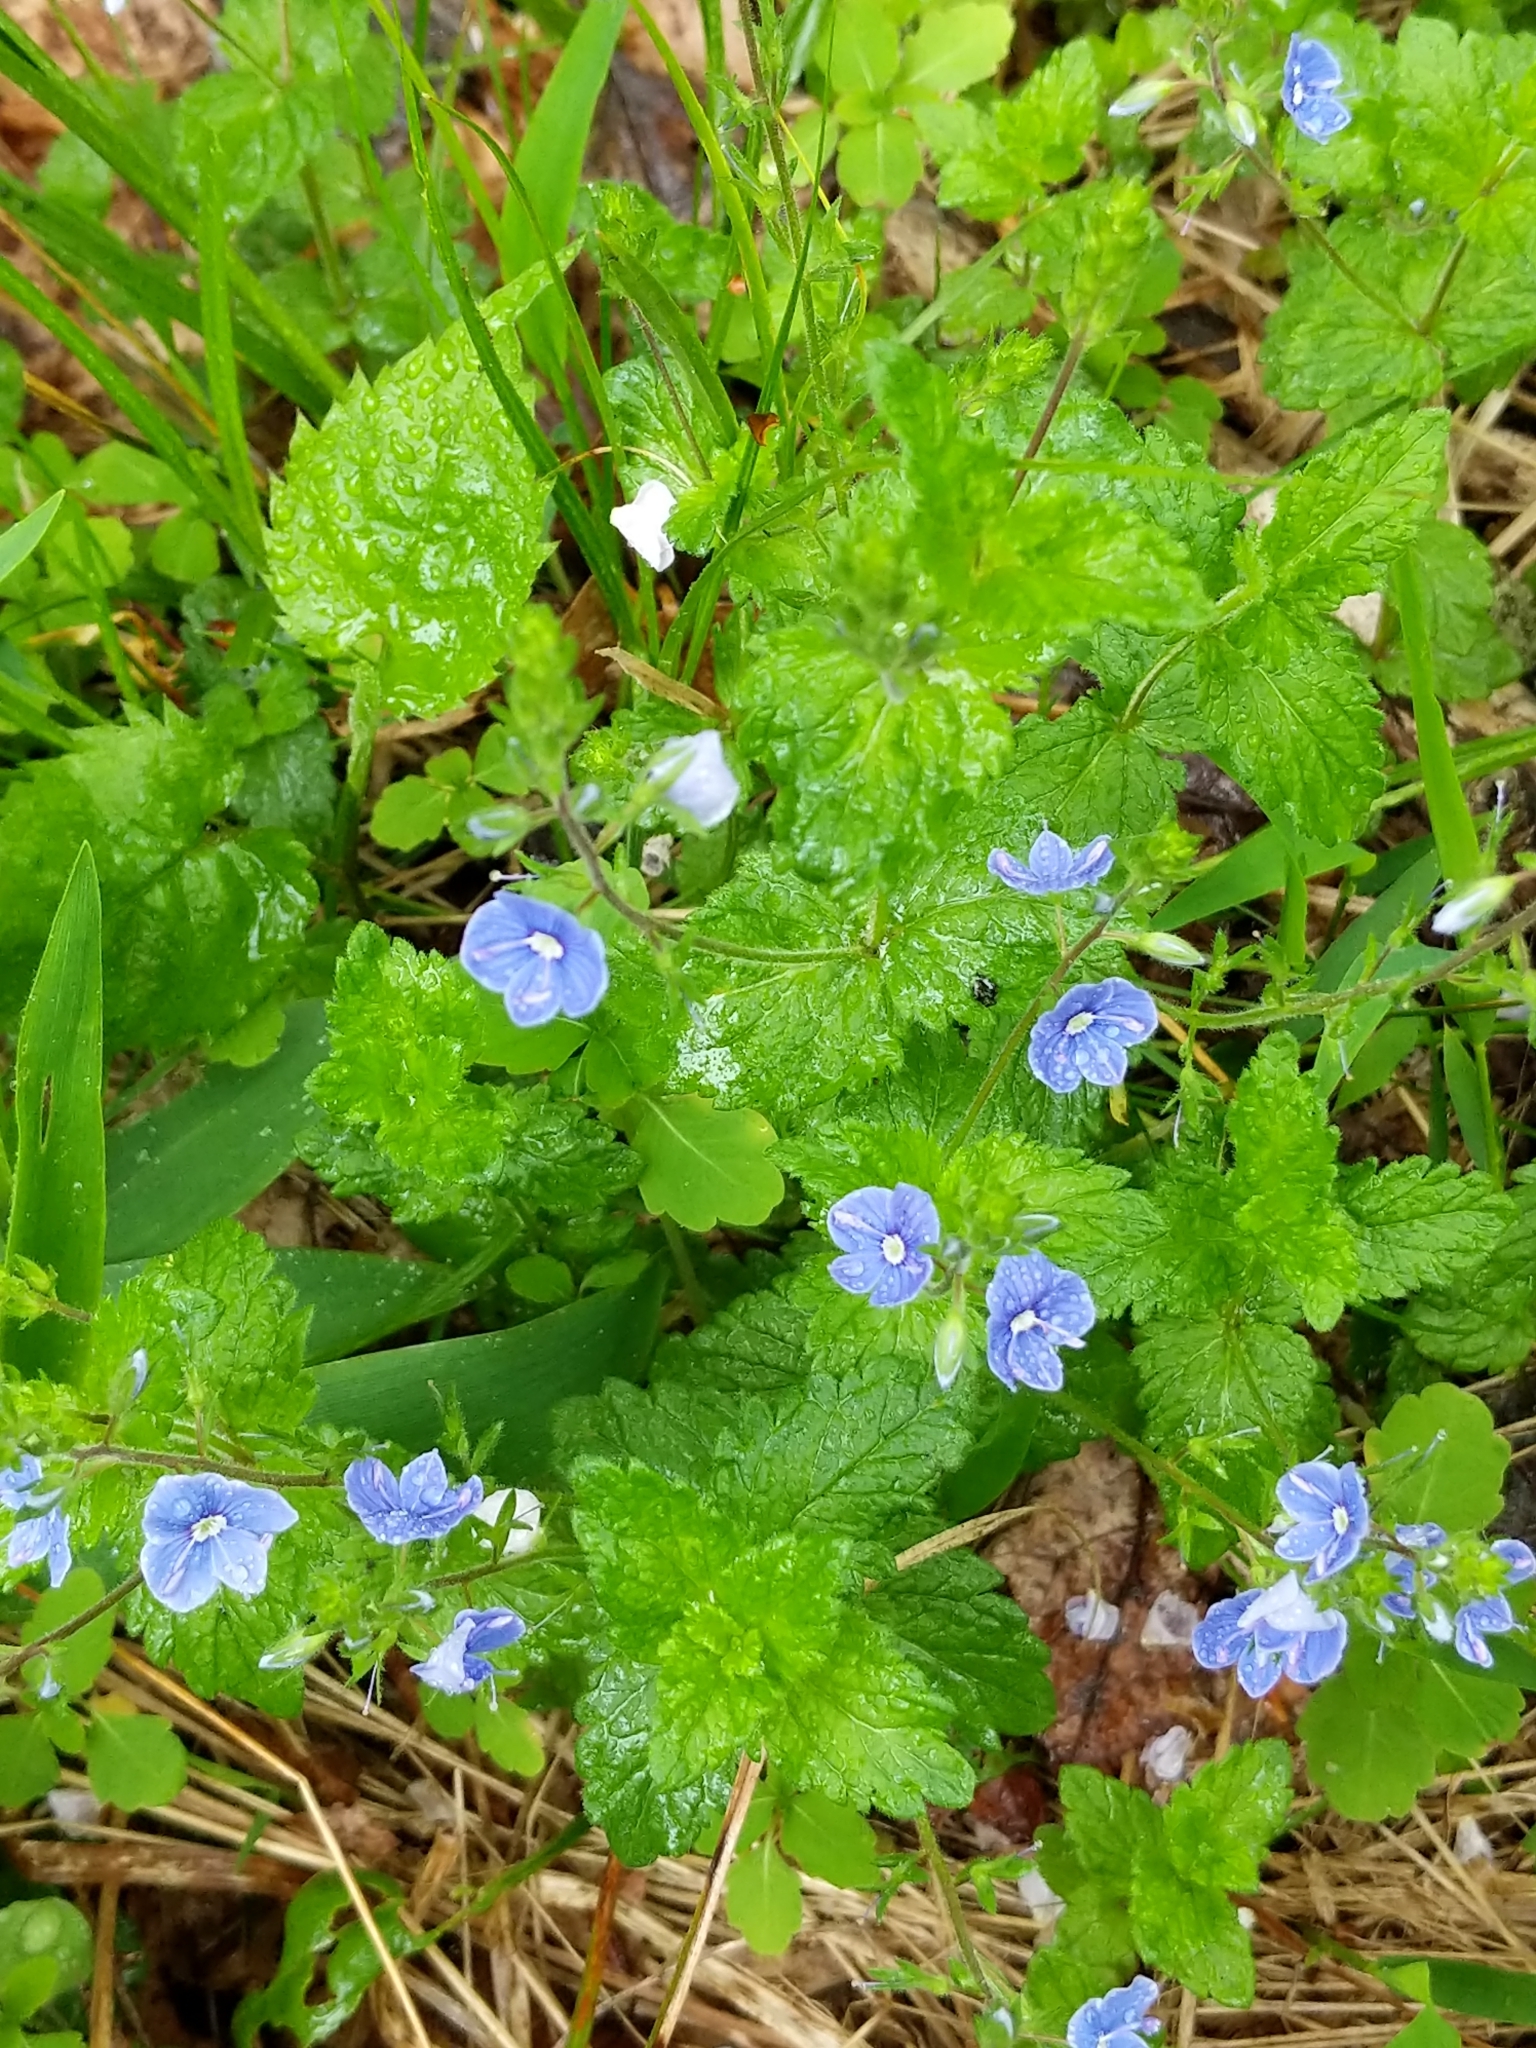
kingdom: Plantae
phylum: Tracheophyta
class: Magnoliopsida
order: Lamiales
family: Plantaginaceae
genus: Veronica
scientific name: Veronica chamaedrys
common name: Germander speedwell
